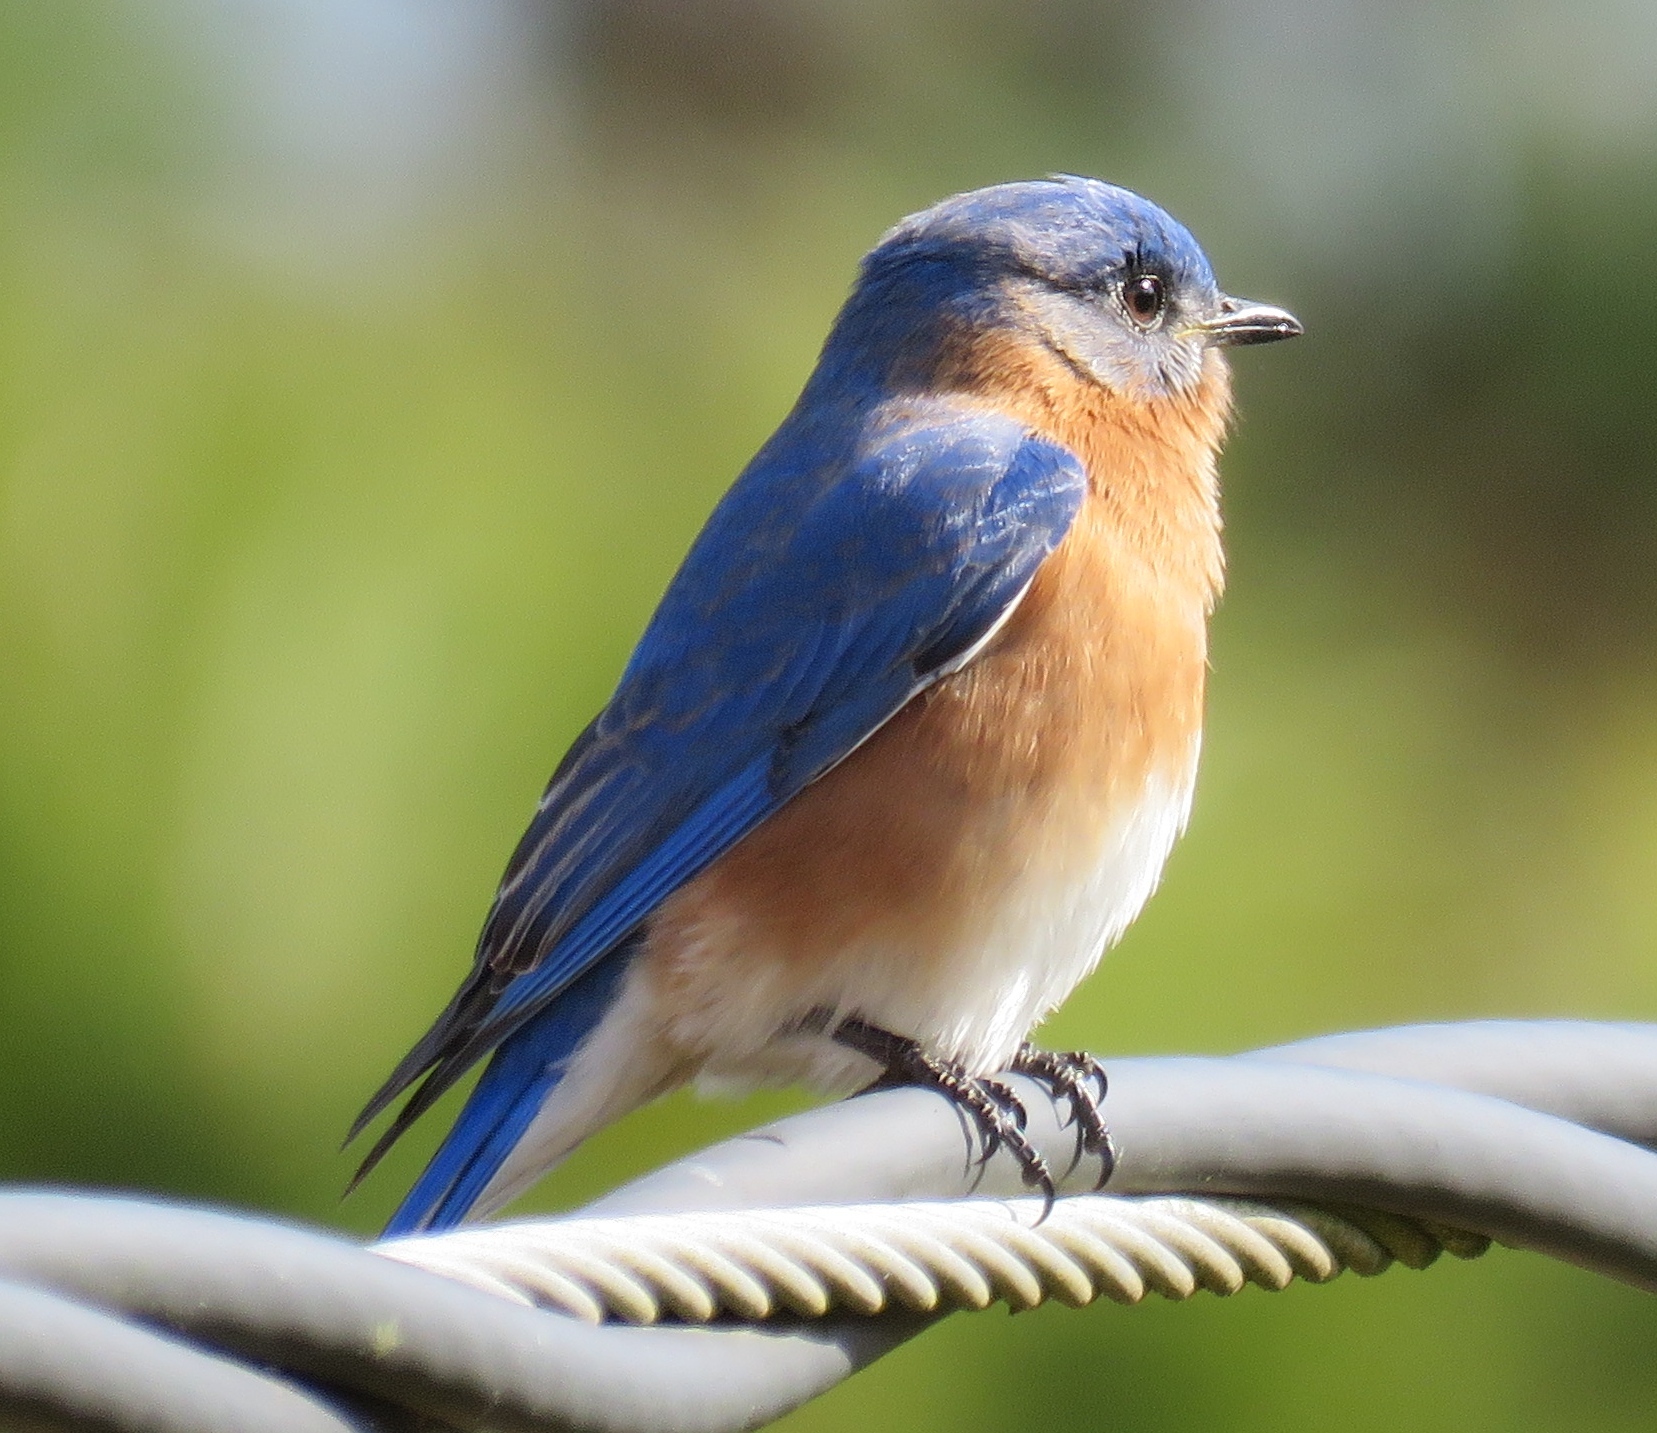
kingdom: Animalia
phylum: Chordata
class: Aves
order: Passeriformes
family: Turdidae
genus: Sialia
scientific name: Sialia sialis
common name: Eastern bluebird
